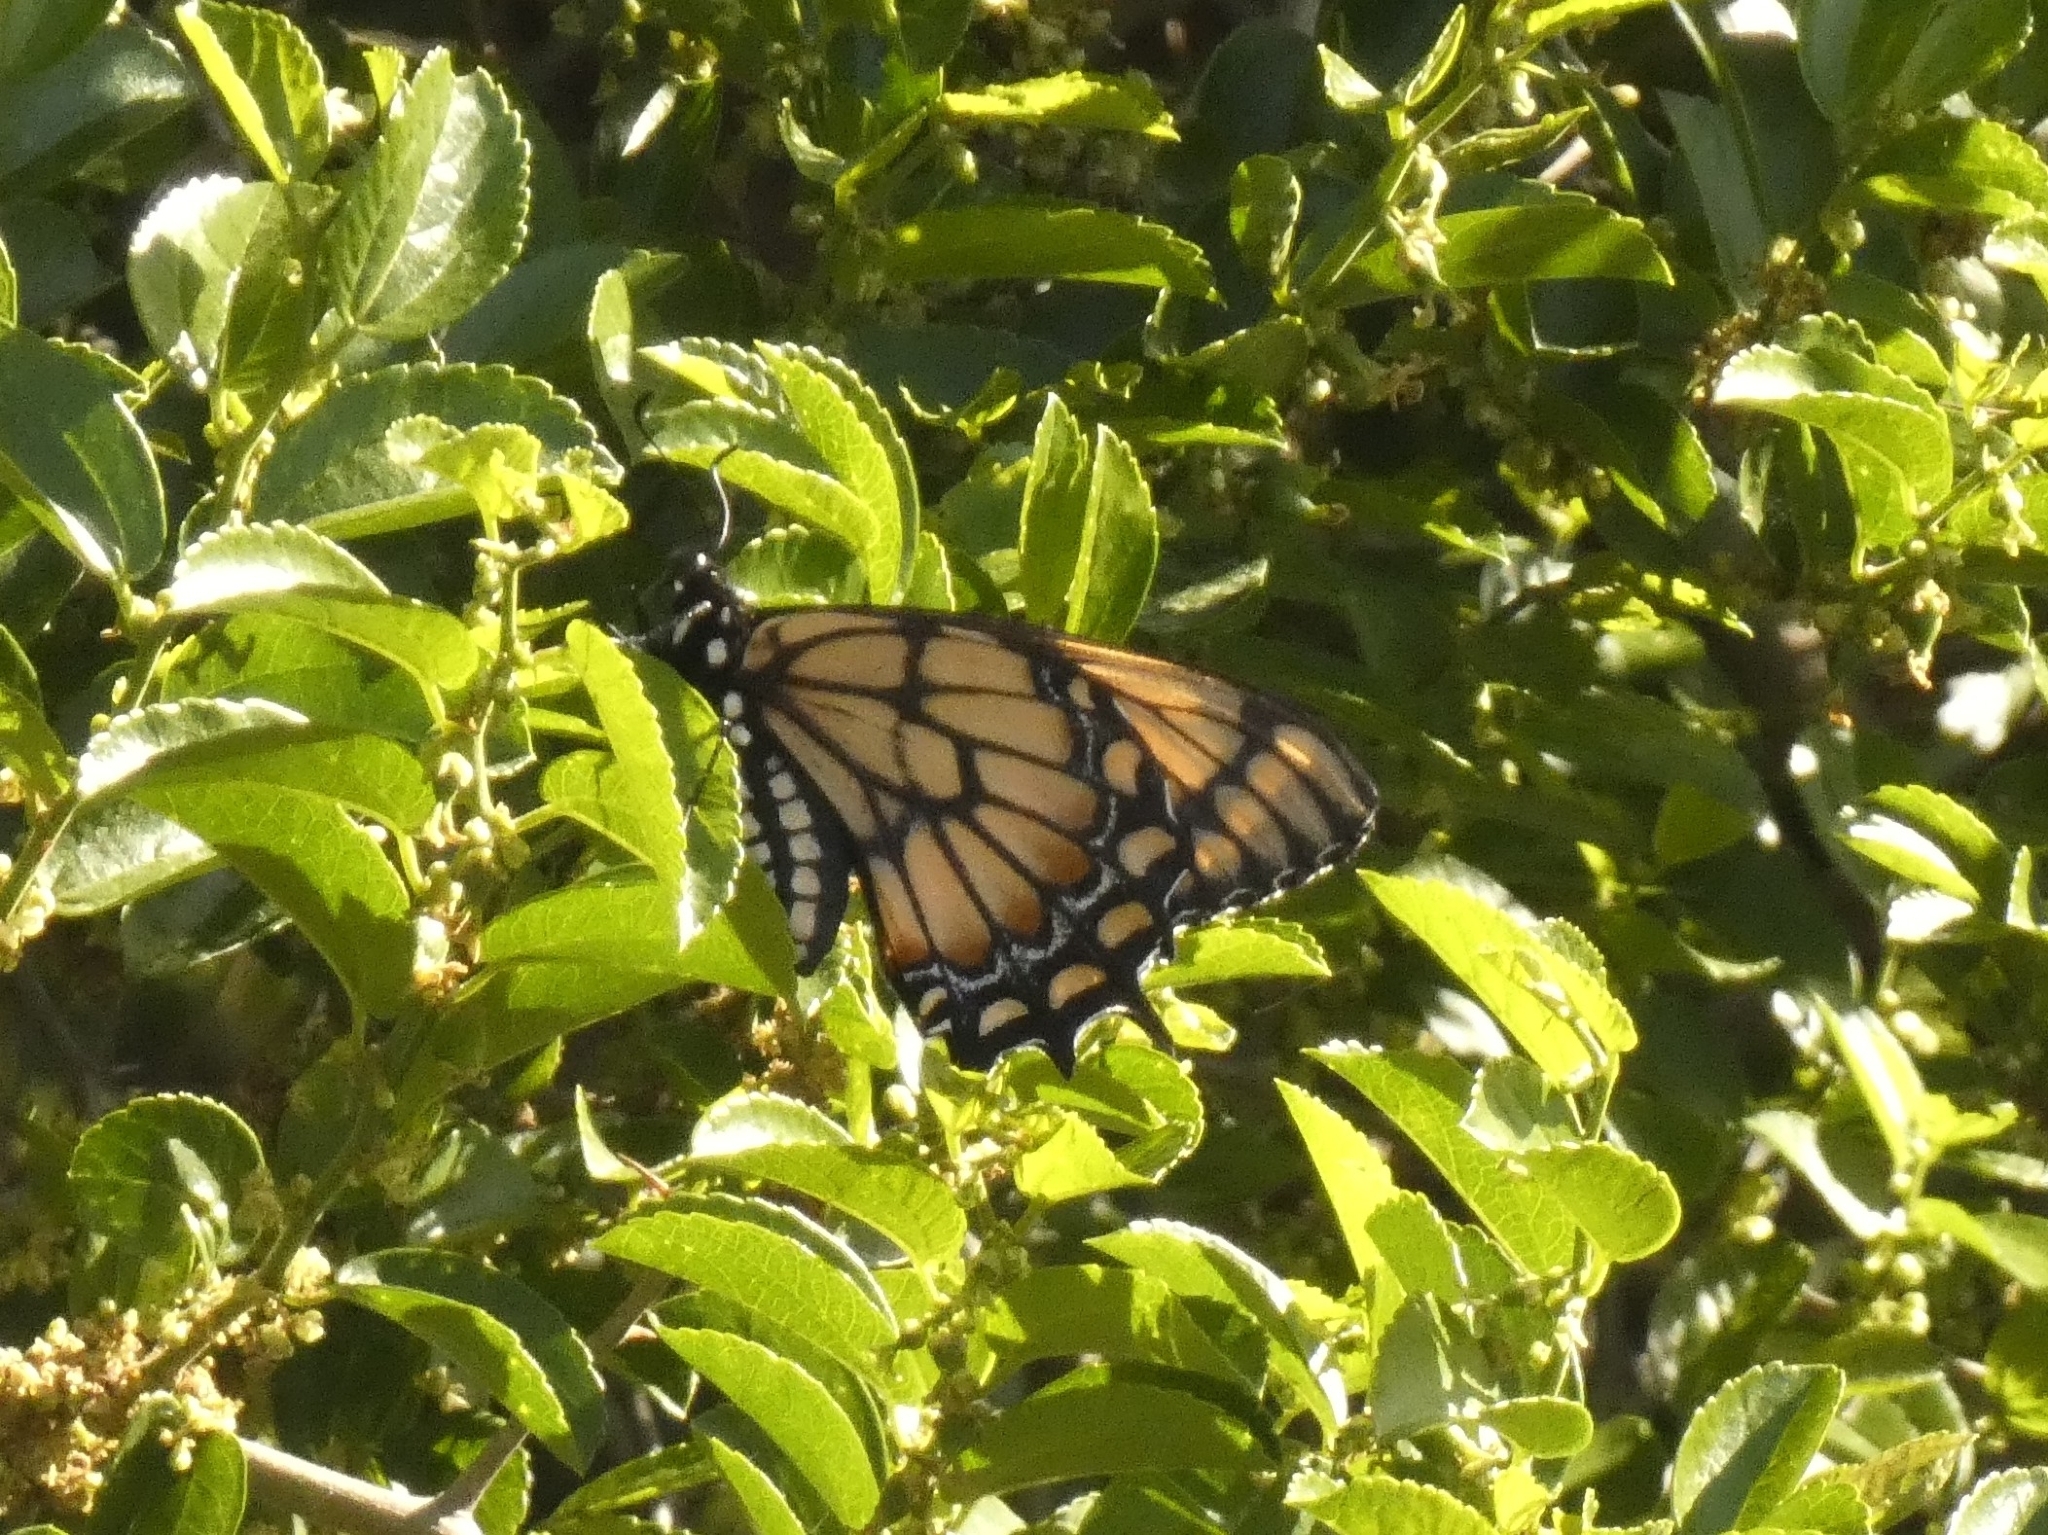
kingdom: Animalia
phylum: Arthropoda
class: Insecta
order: Lepidoptera
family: Papilionidae
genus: Papilio
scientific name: Papilio hellanichus
